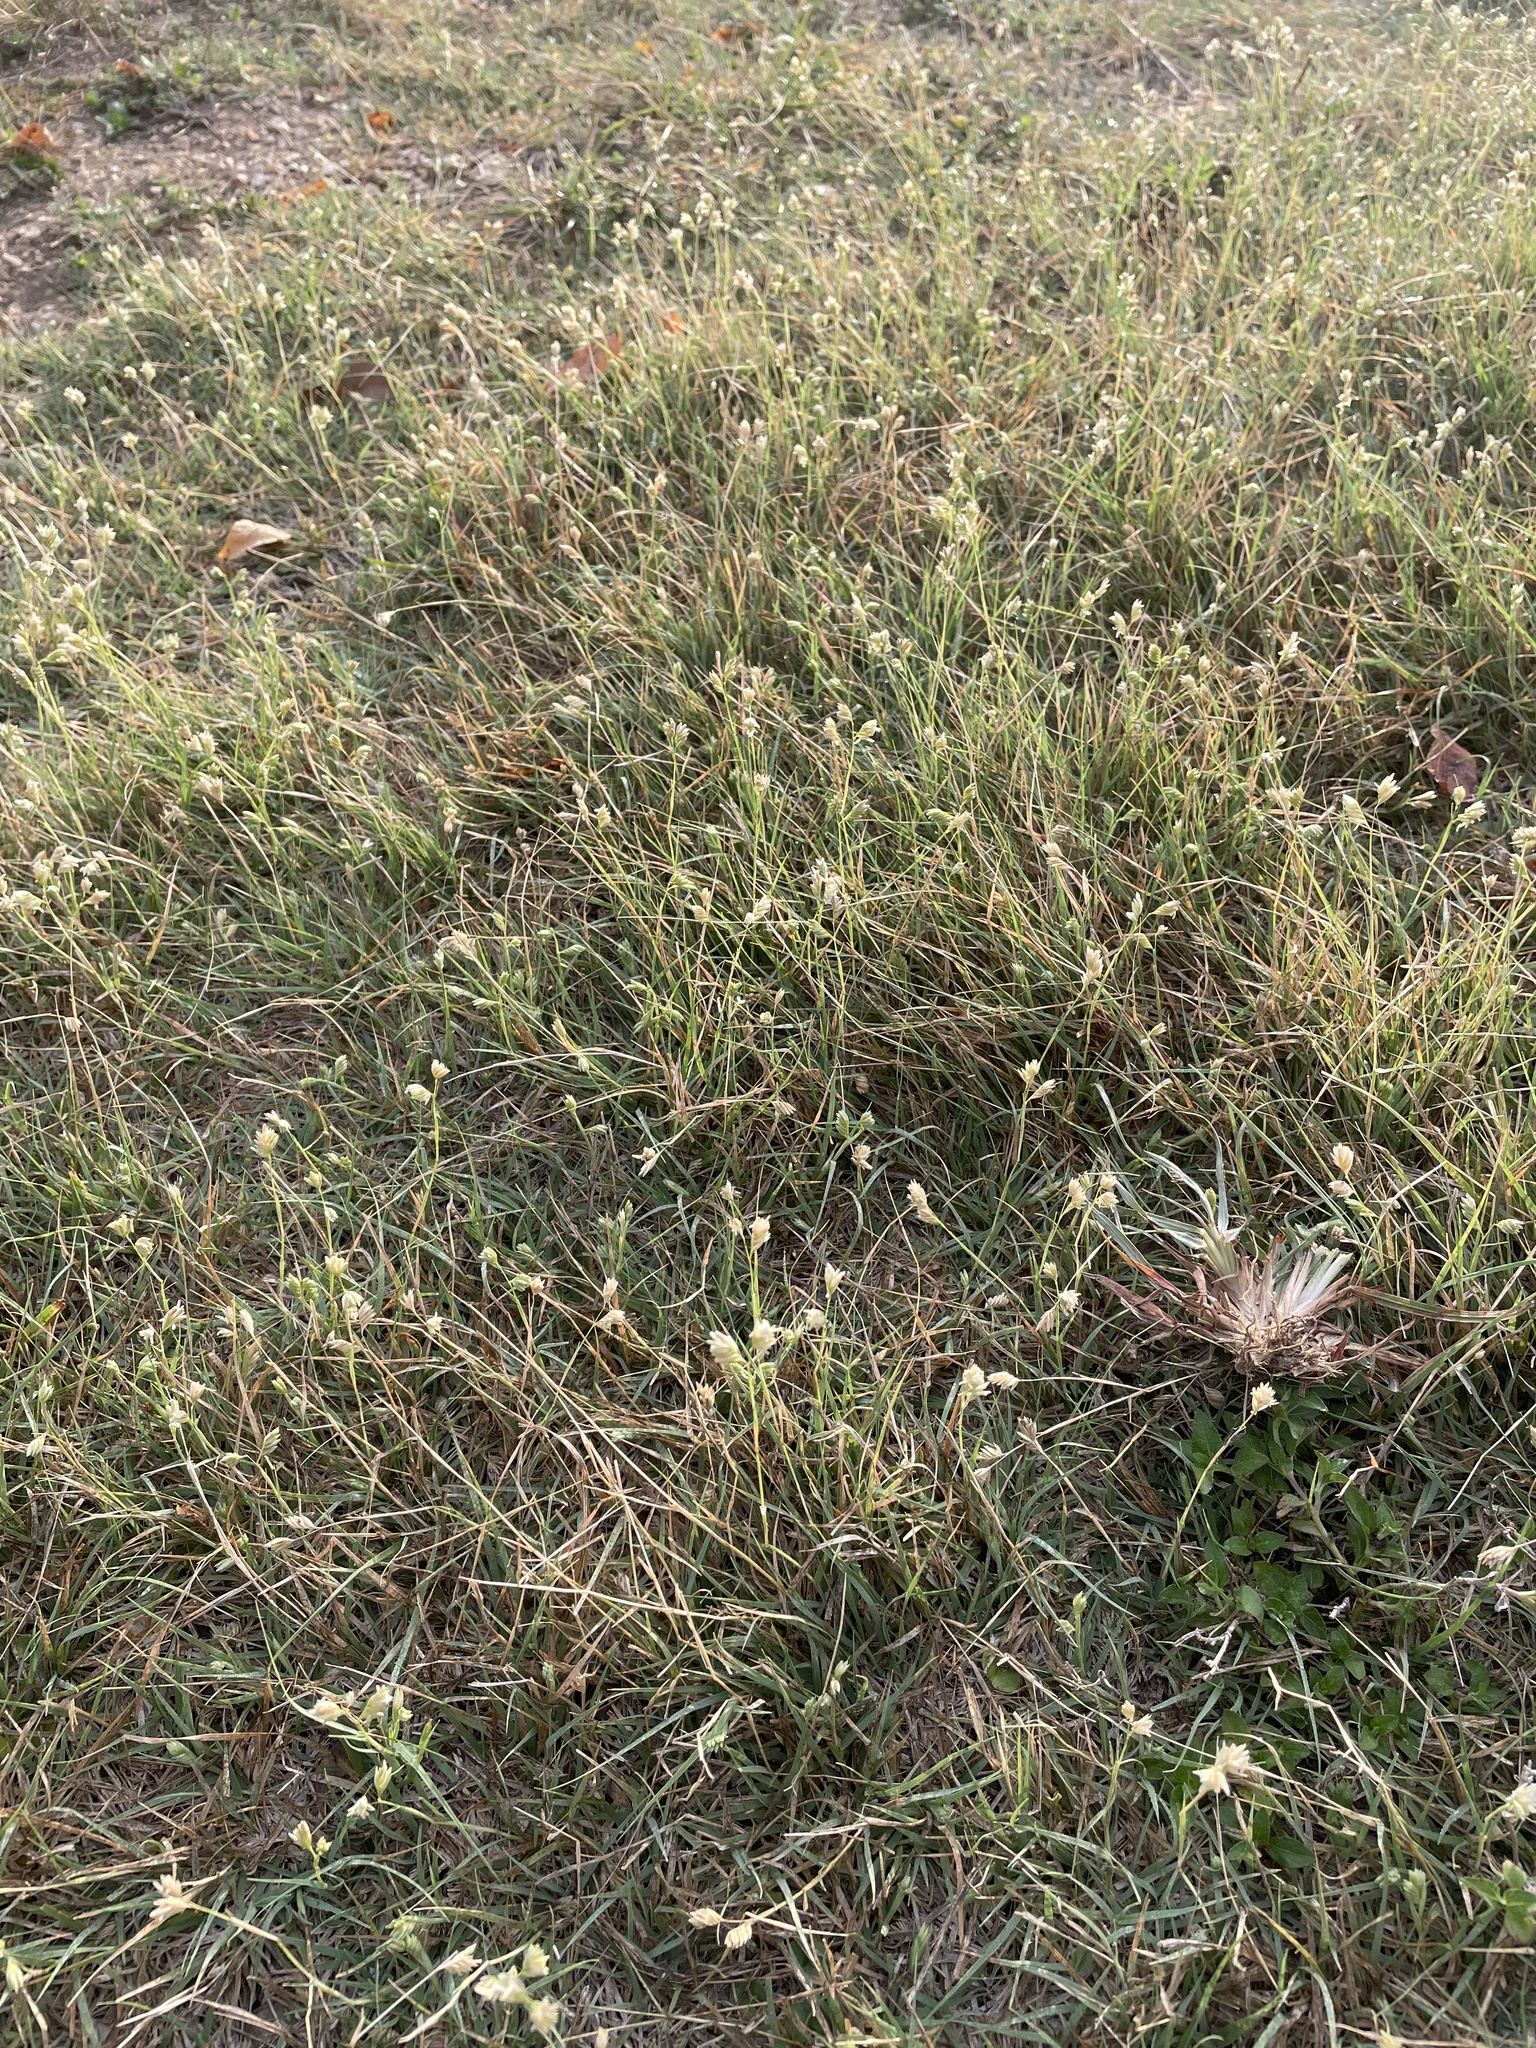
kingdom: Plantae
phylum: Tracheophyta
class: Liliopsida
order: Poales
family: Poaceae
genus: Bouteloua
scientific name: Bouteloua dactyloides
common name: Buffalo grass
